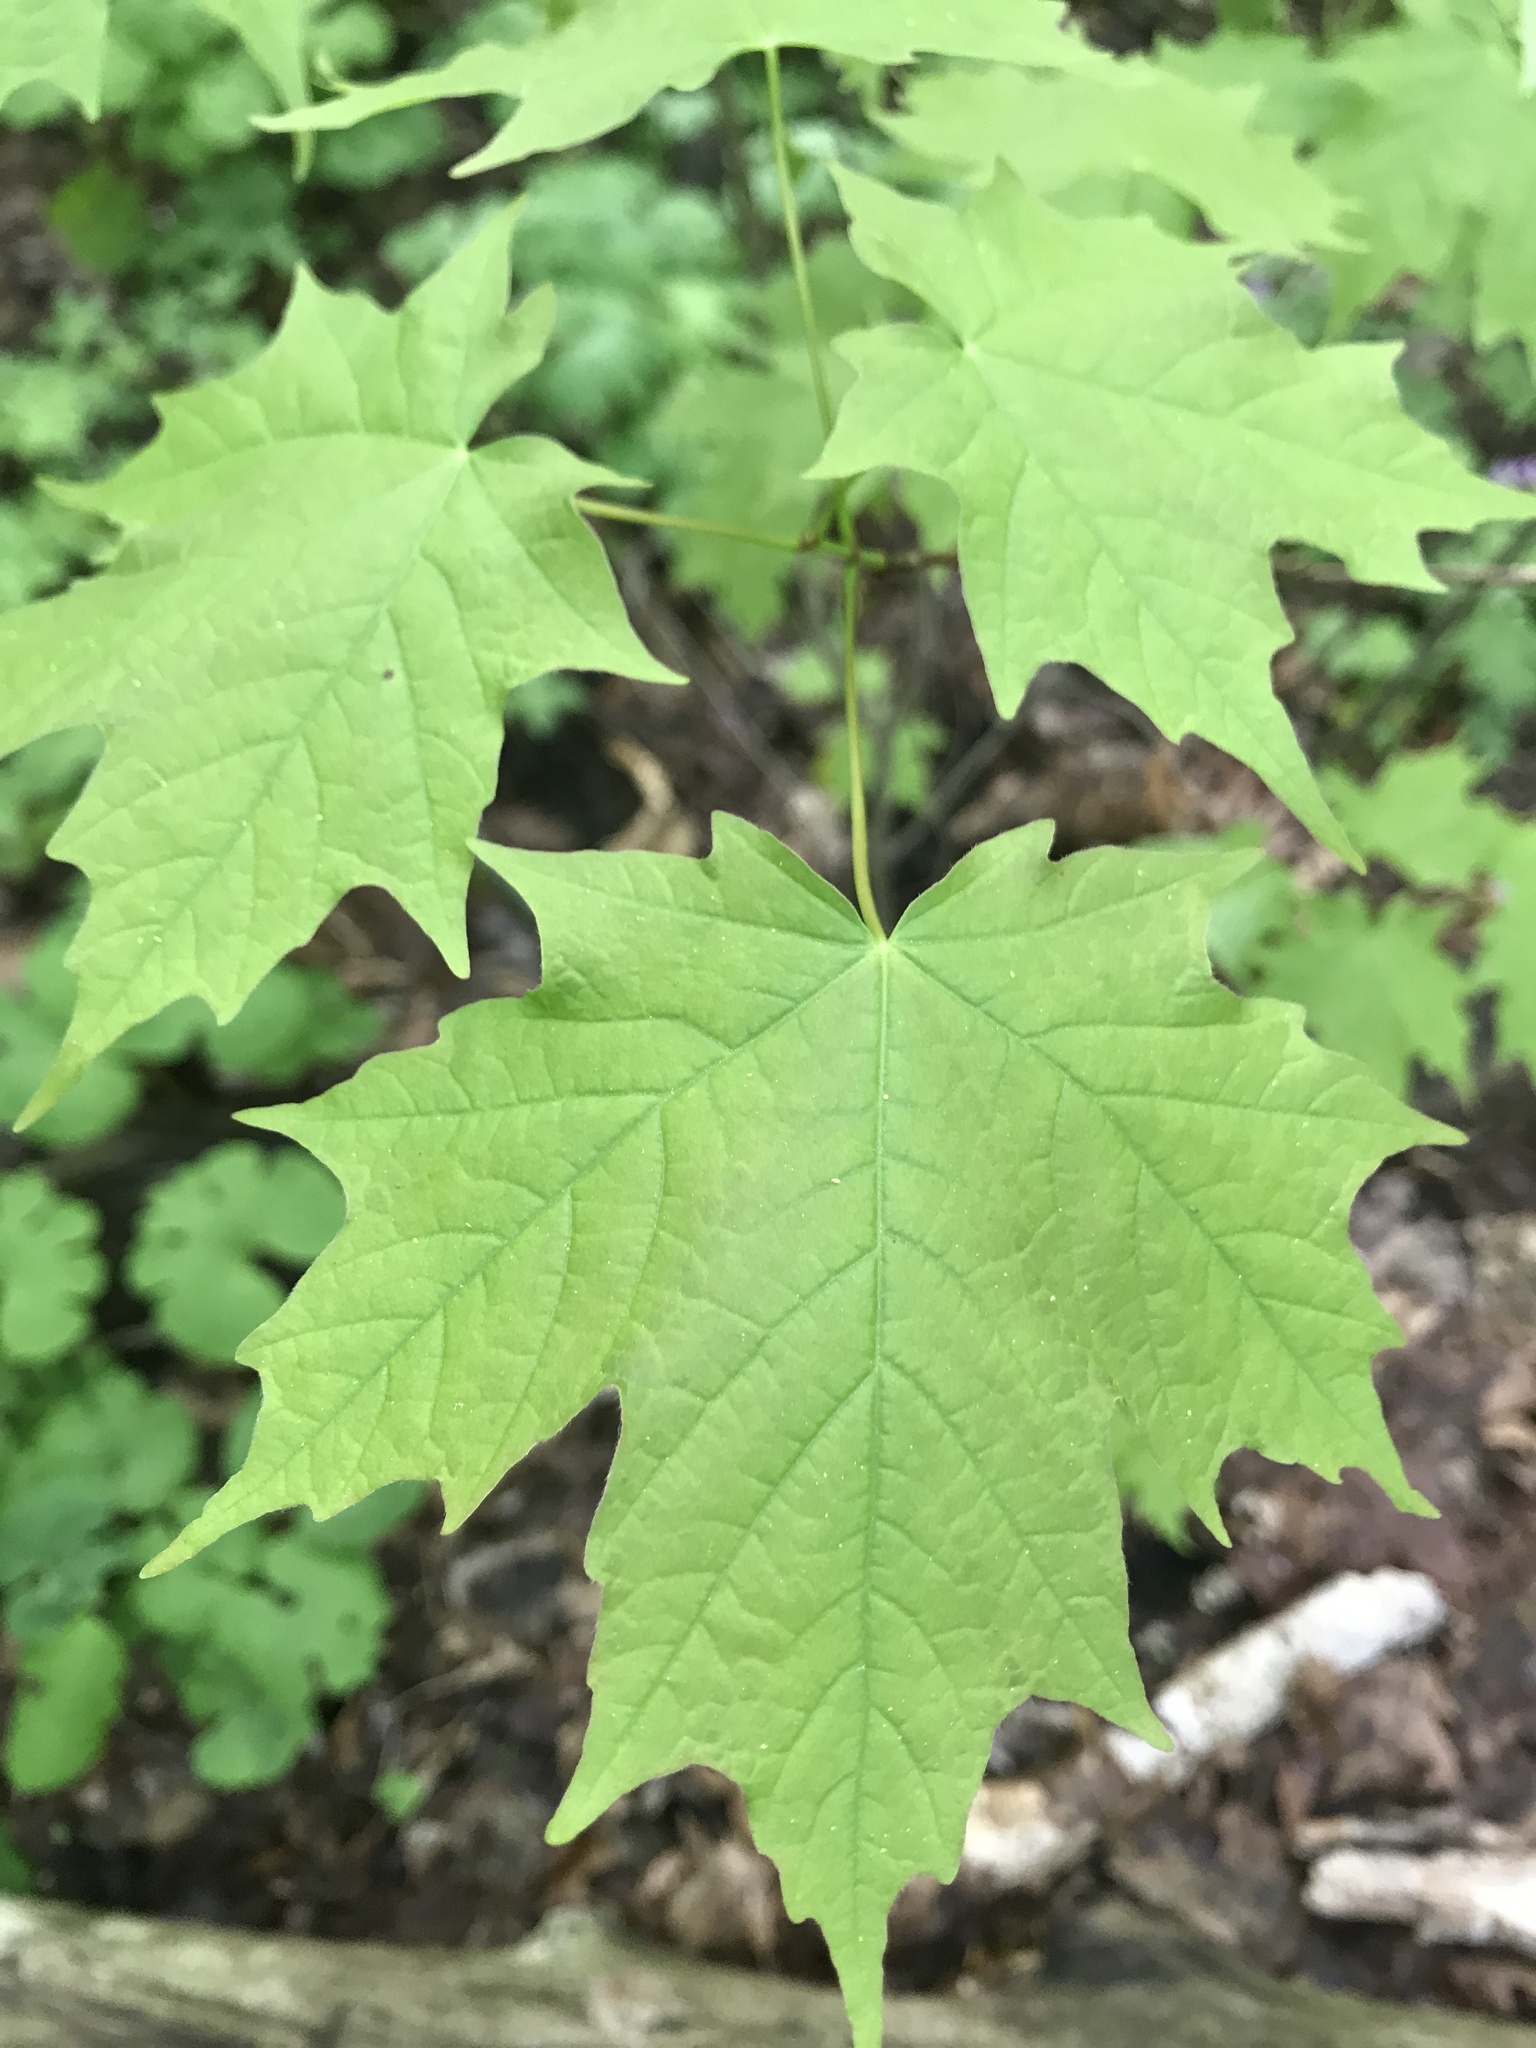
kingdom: Plantae
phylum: Tracheophyta
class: Magnoliopsida
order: Sapindales
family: Sapindaceae
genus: Acer
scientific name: Acer saccharum
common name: Sugar maple
